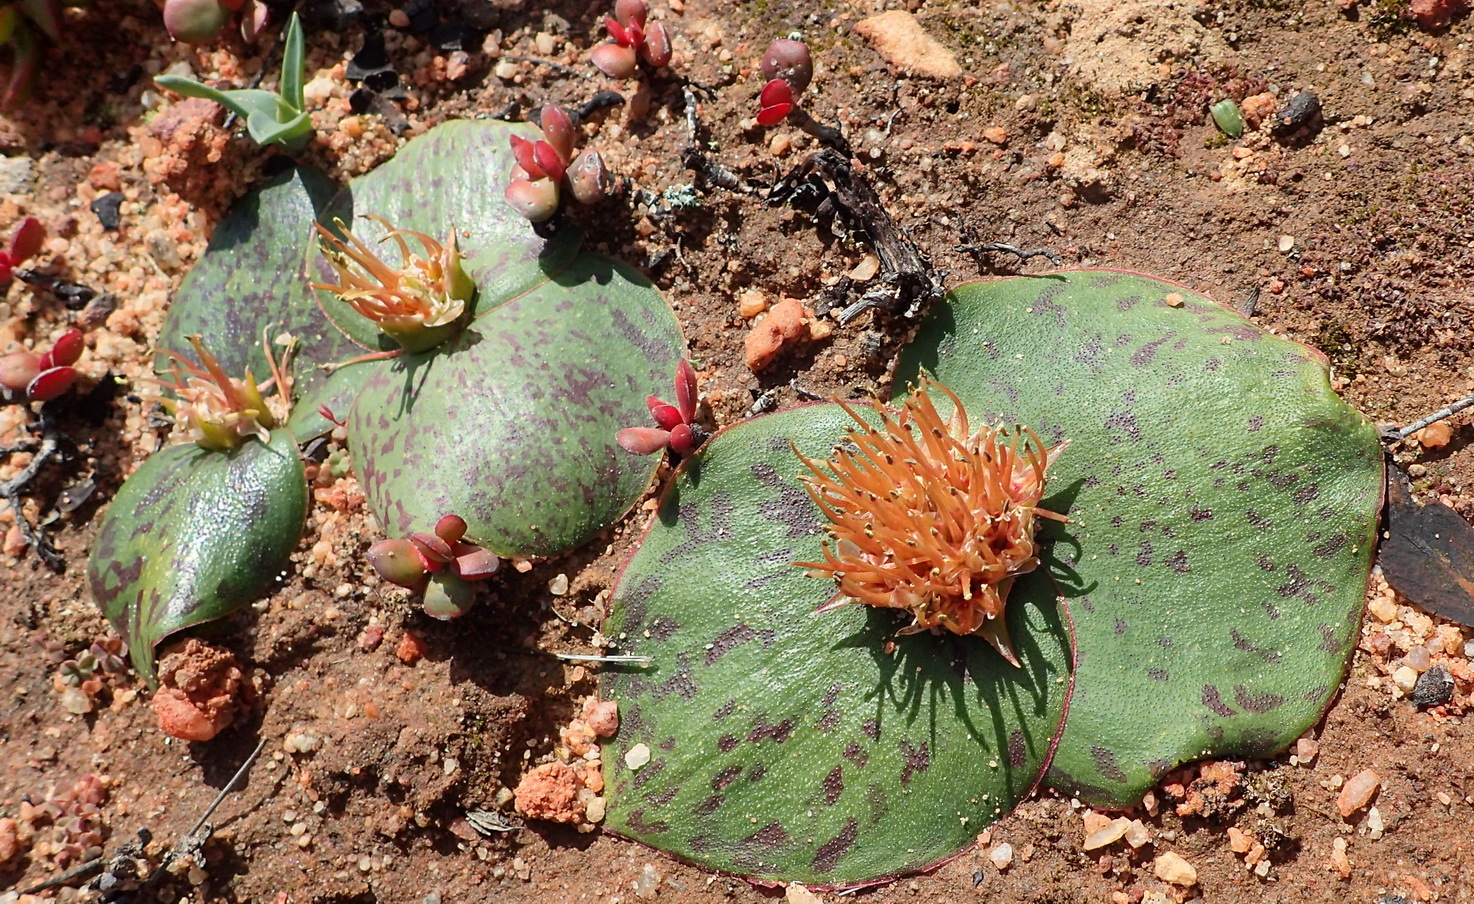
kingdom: Plantae
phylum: Tracheophyta
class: Liliopsida
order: Asparagales
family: Asparagaceae
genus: Massonia
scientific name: Massonia depressa
